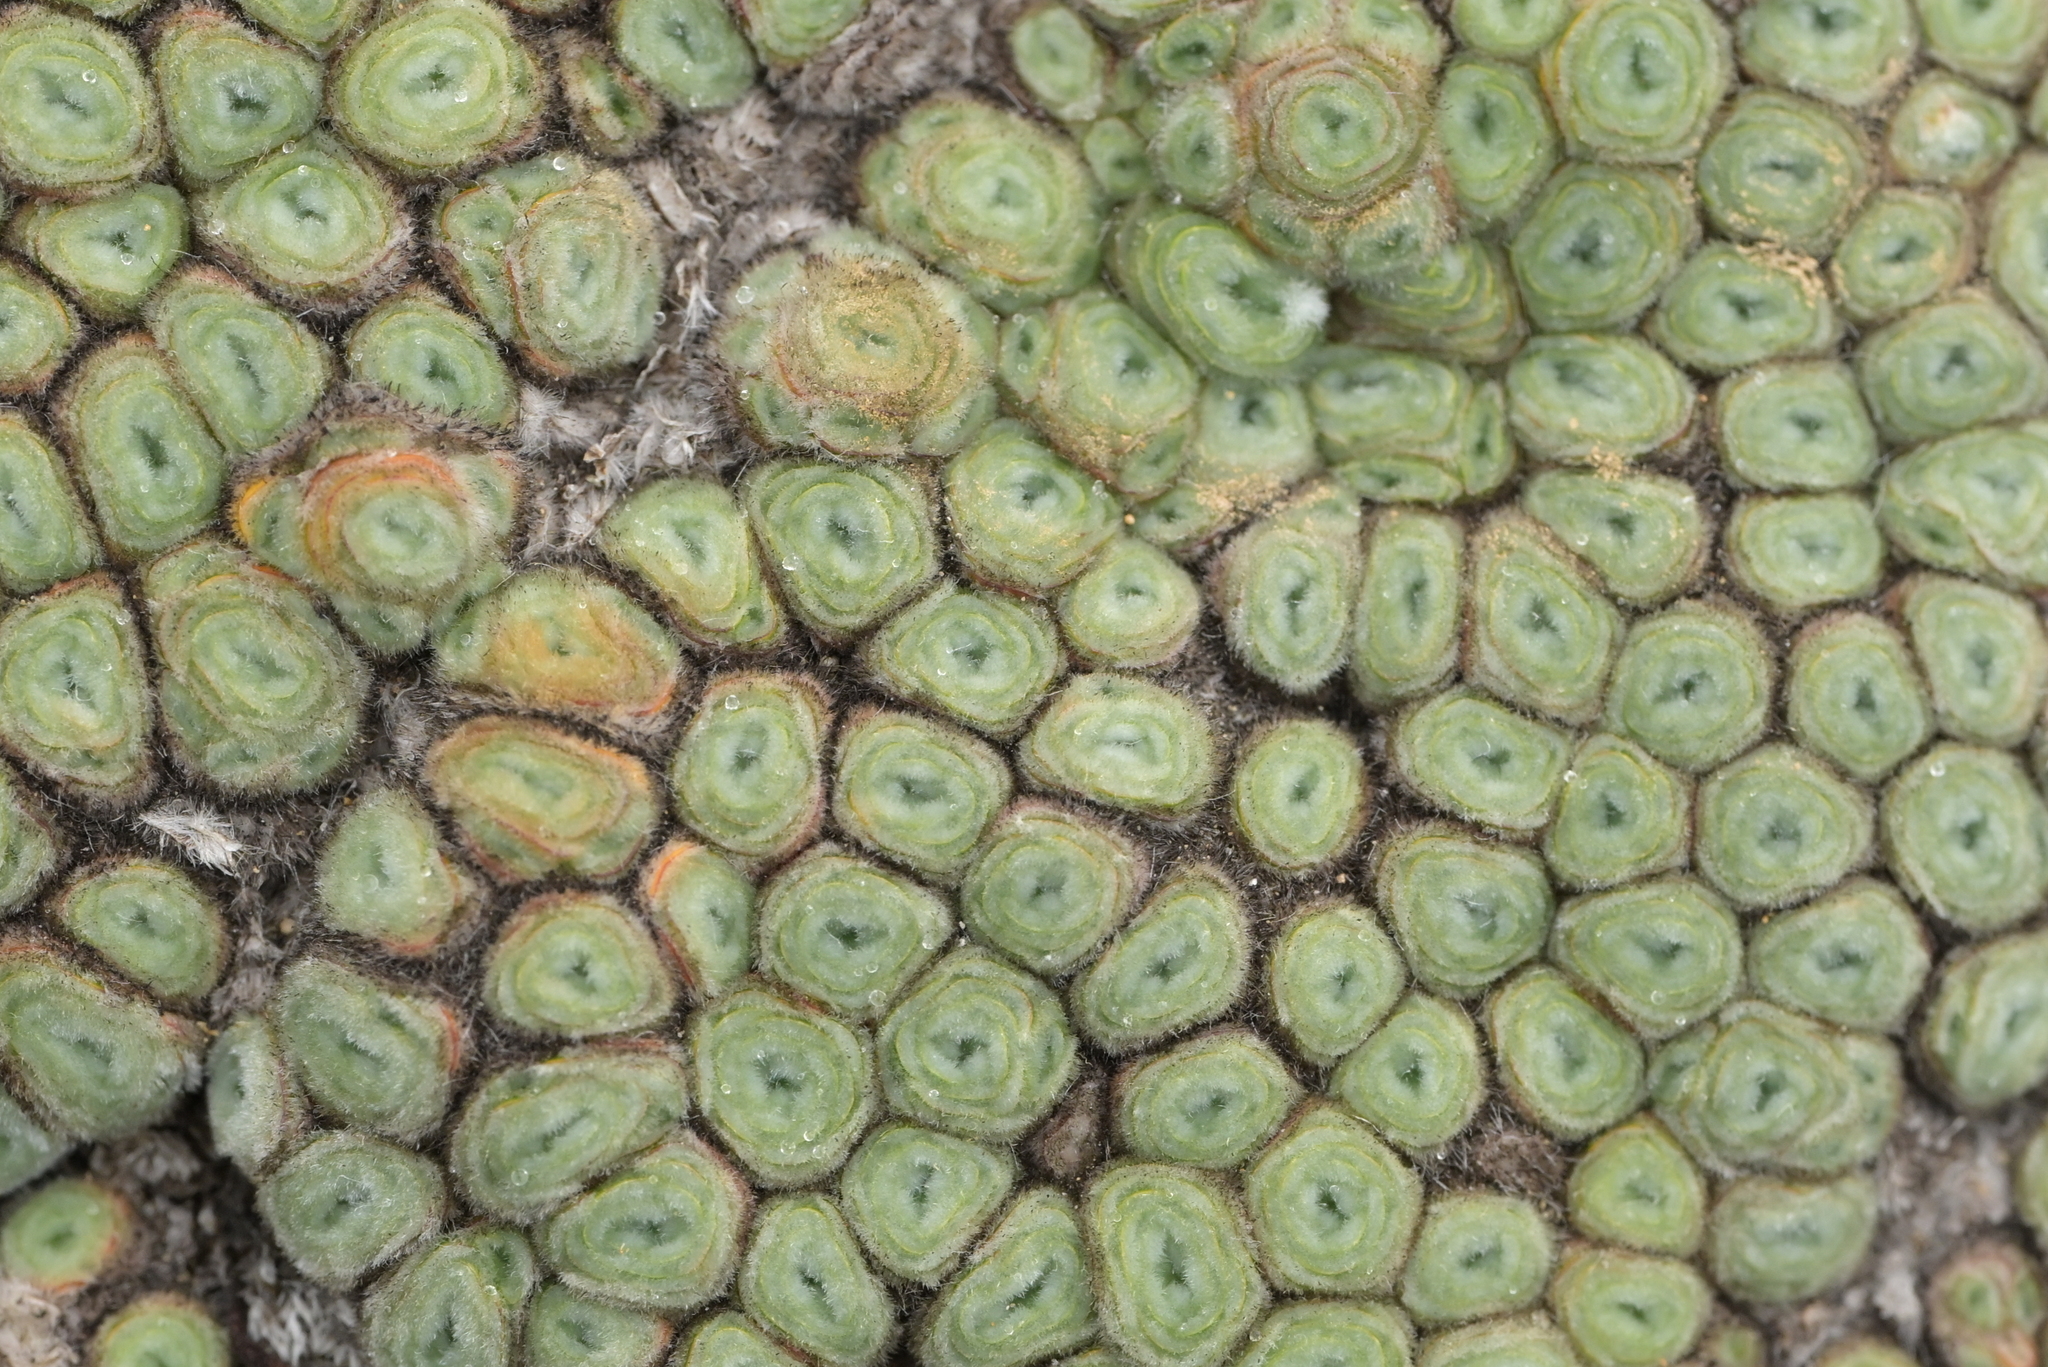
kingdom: Plantae
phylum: Tracheophyta
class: Magnoliopsida
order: Asterales
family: Asteraceae
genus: Raoulia
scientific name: Raoulia rubra
